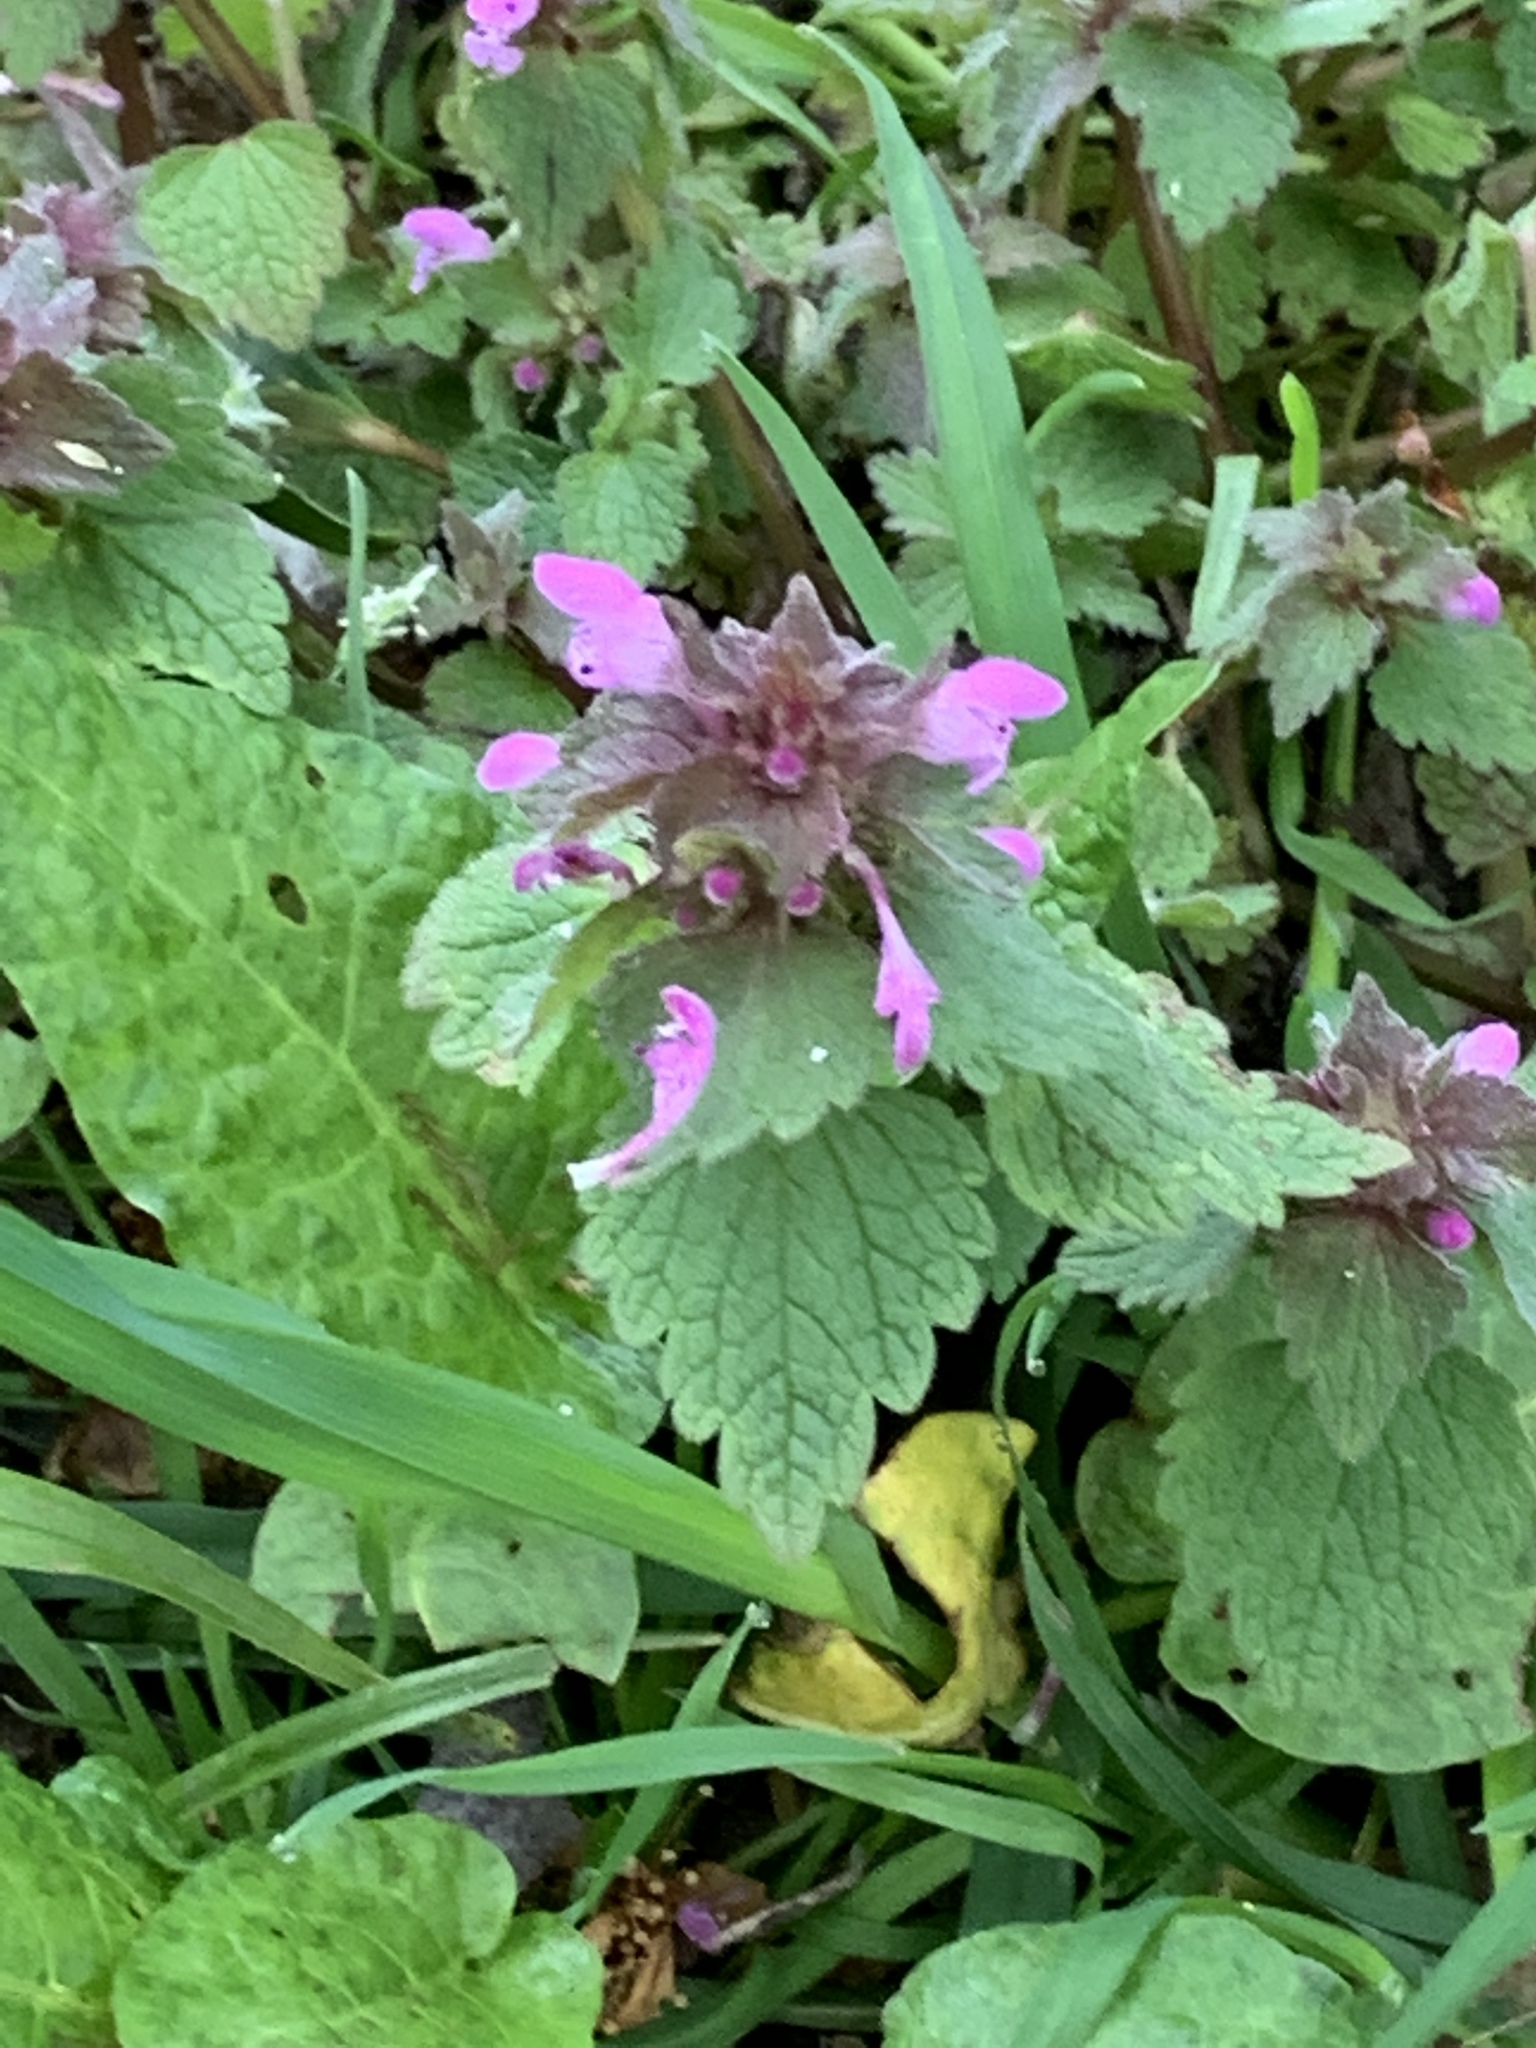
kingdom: Plantae
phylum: Tracheophyta
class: Magnoliopsida
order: Lamiales
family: Lamiaceae
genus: Lamium
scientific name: Lamium purpureum
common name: Red dead-nettle
